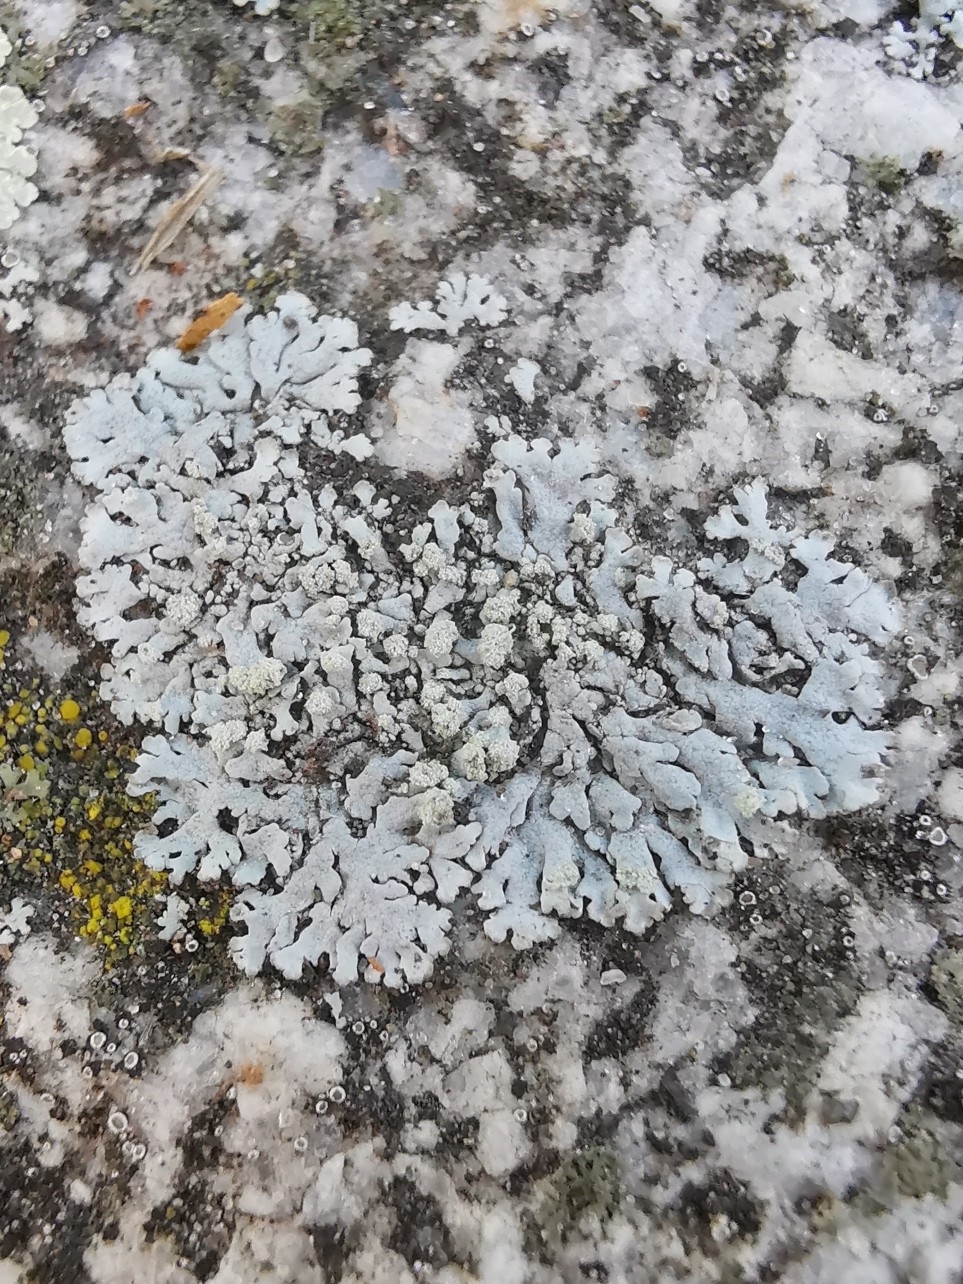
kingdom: Fungi
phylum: Ascomycota
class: Lecanoromycetes
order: Caliciales
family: Physciaceae
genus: Physcia
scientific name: Physcia caesia
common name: Blue-gray rosette lichen
